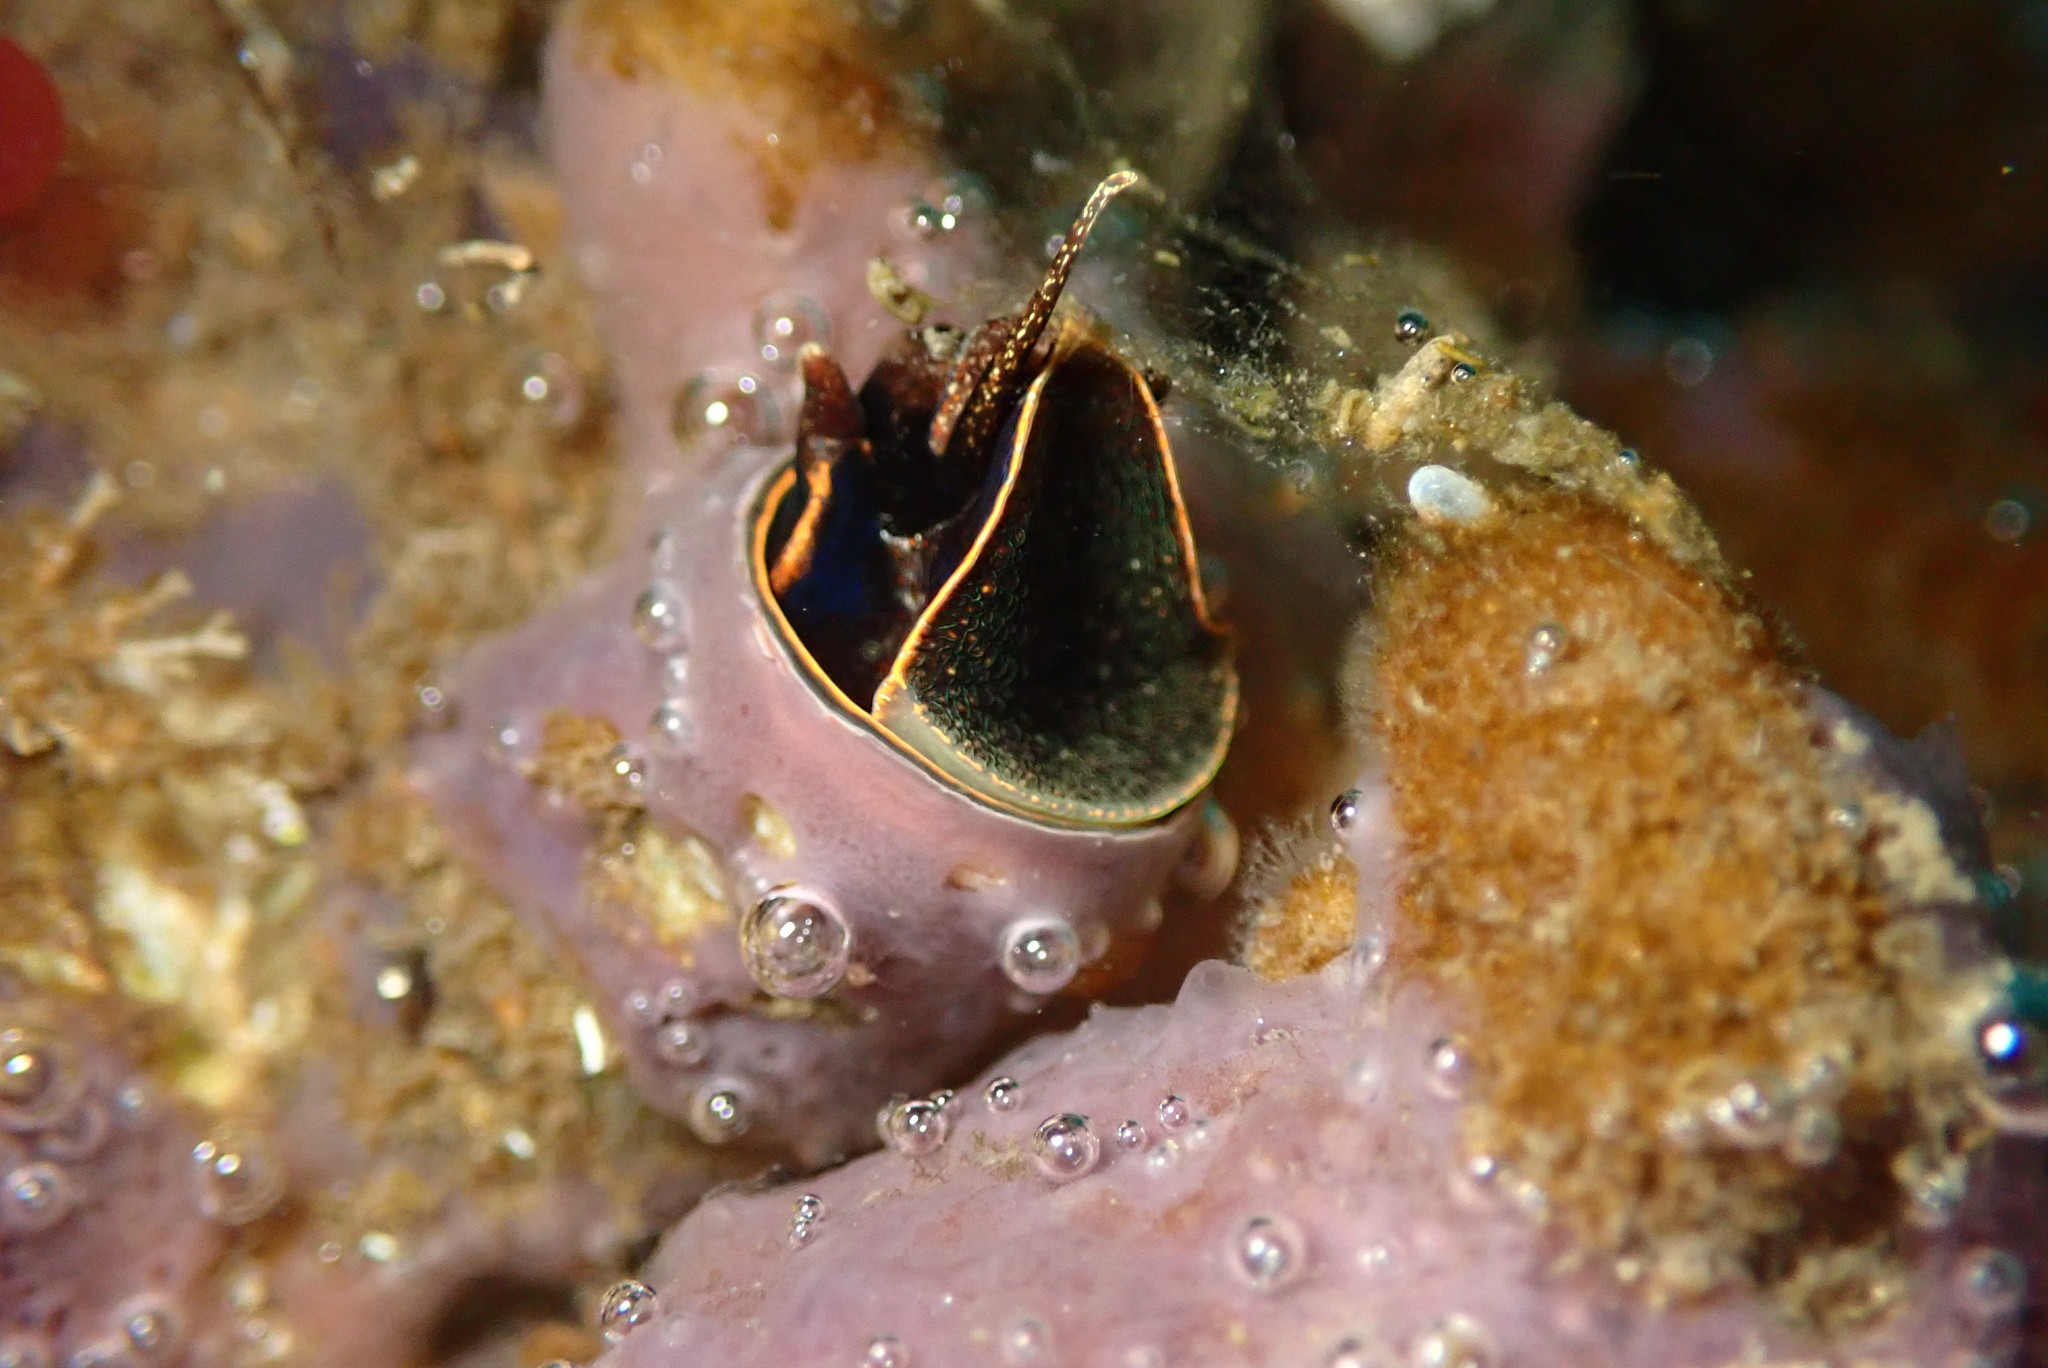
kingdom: Animalia
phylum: Mollusca
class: Gastropoda
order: Littorinimorpha
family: Vermetidae
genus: Thylacodes
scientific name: Thylacodes squamigerus
